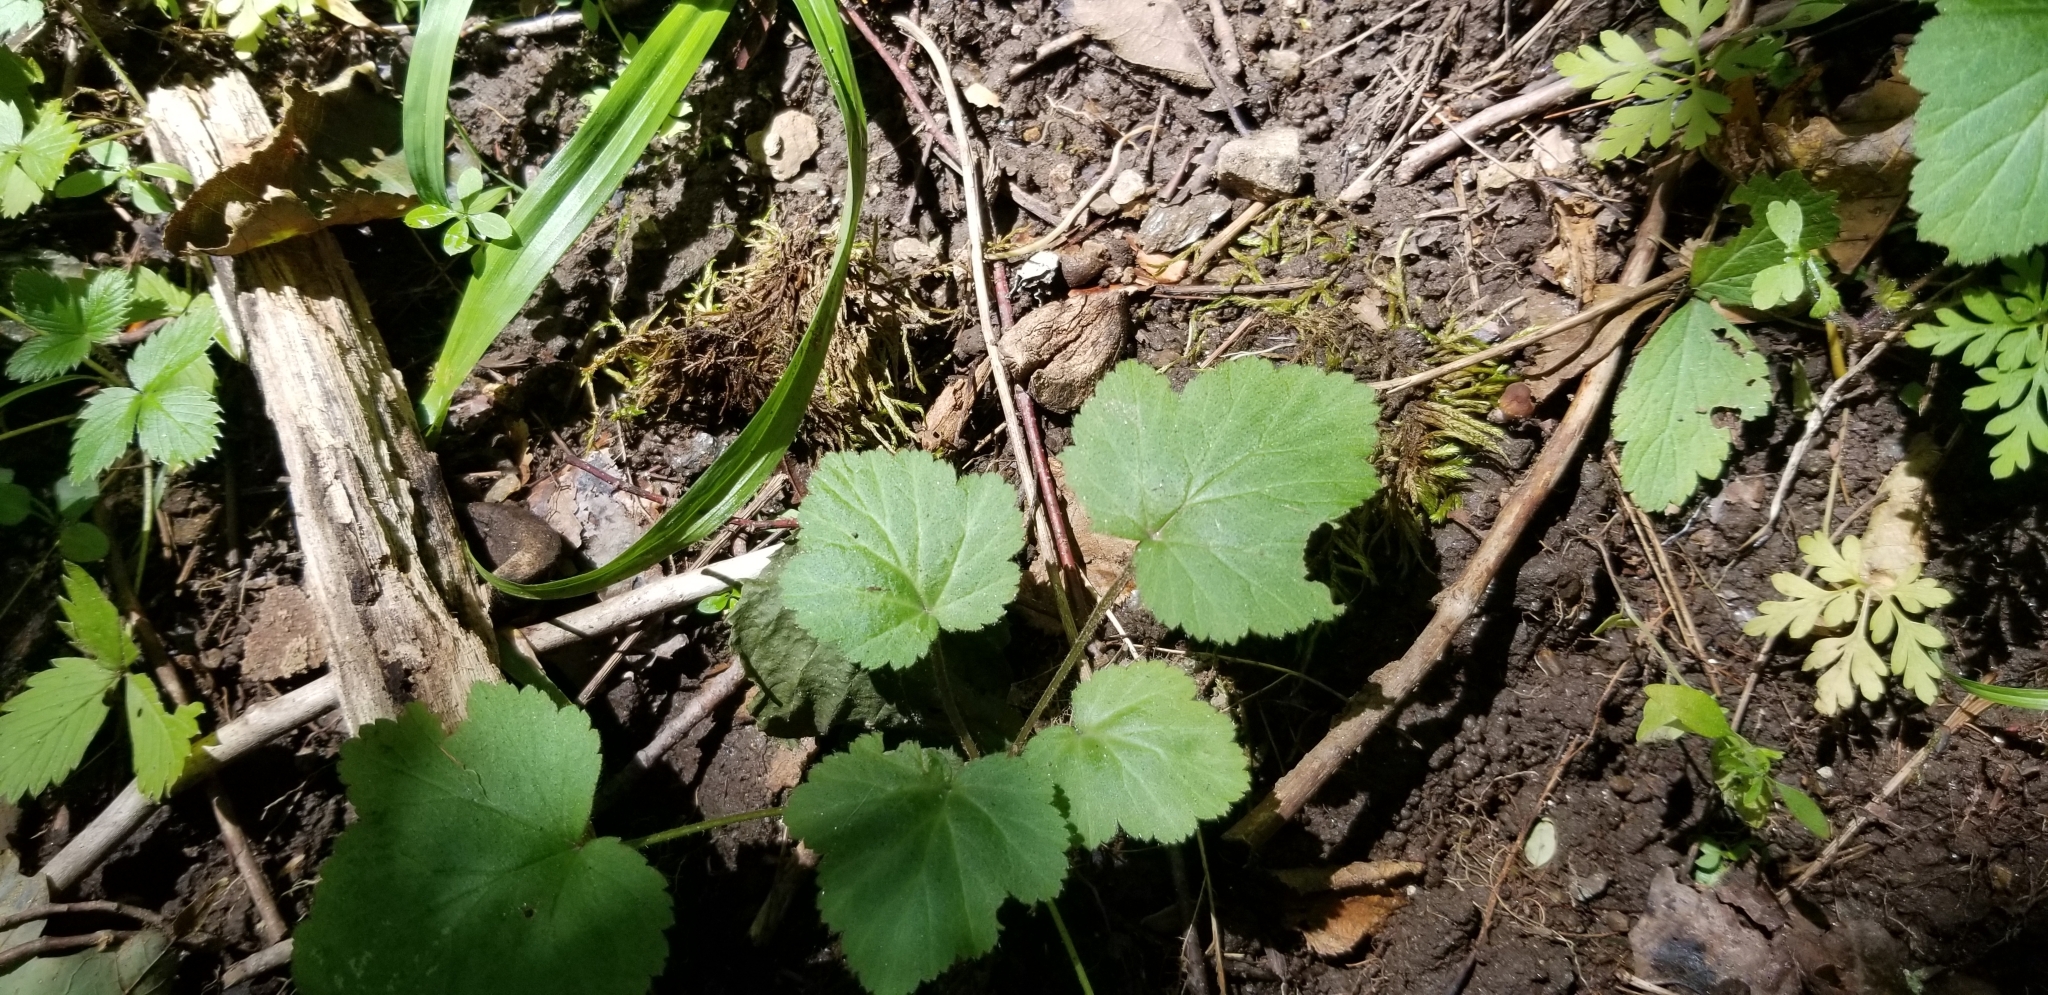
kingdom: Plantae
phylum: Tracheophyta
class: Magnoliopsida
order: Saxifragales
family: Saxifragaceae
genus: Tiarella
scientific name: Tiarella stolonifera
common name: Stoloniferous foamflower
